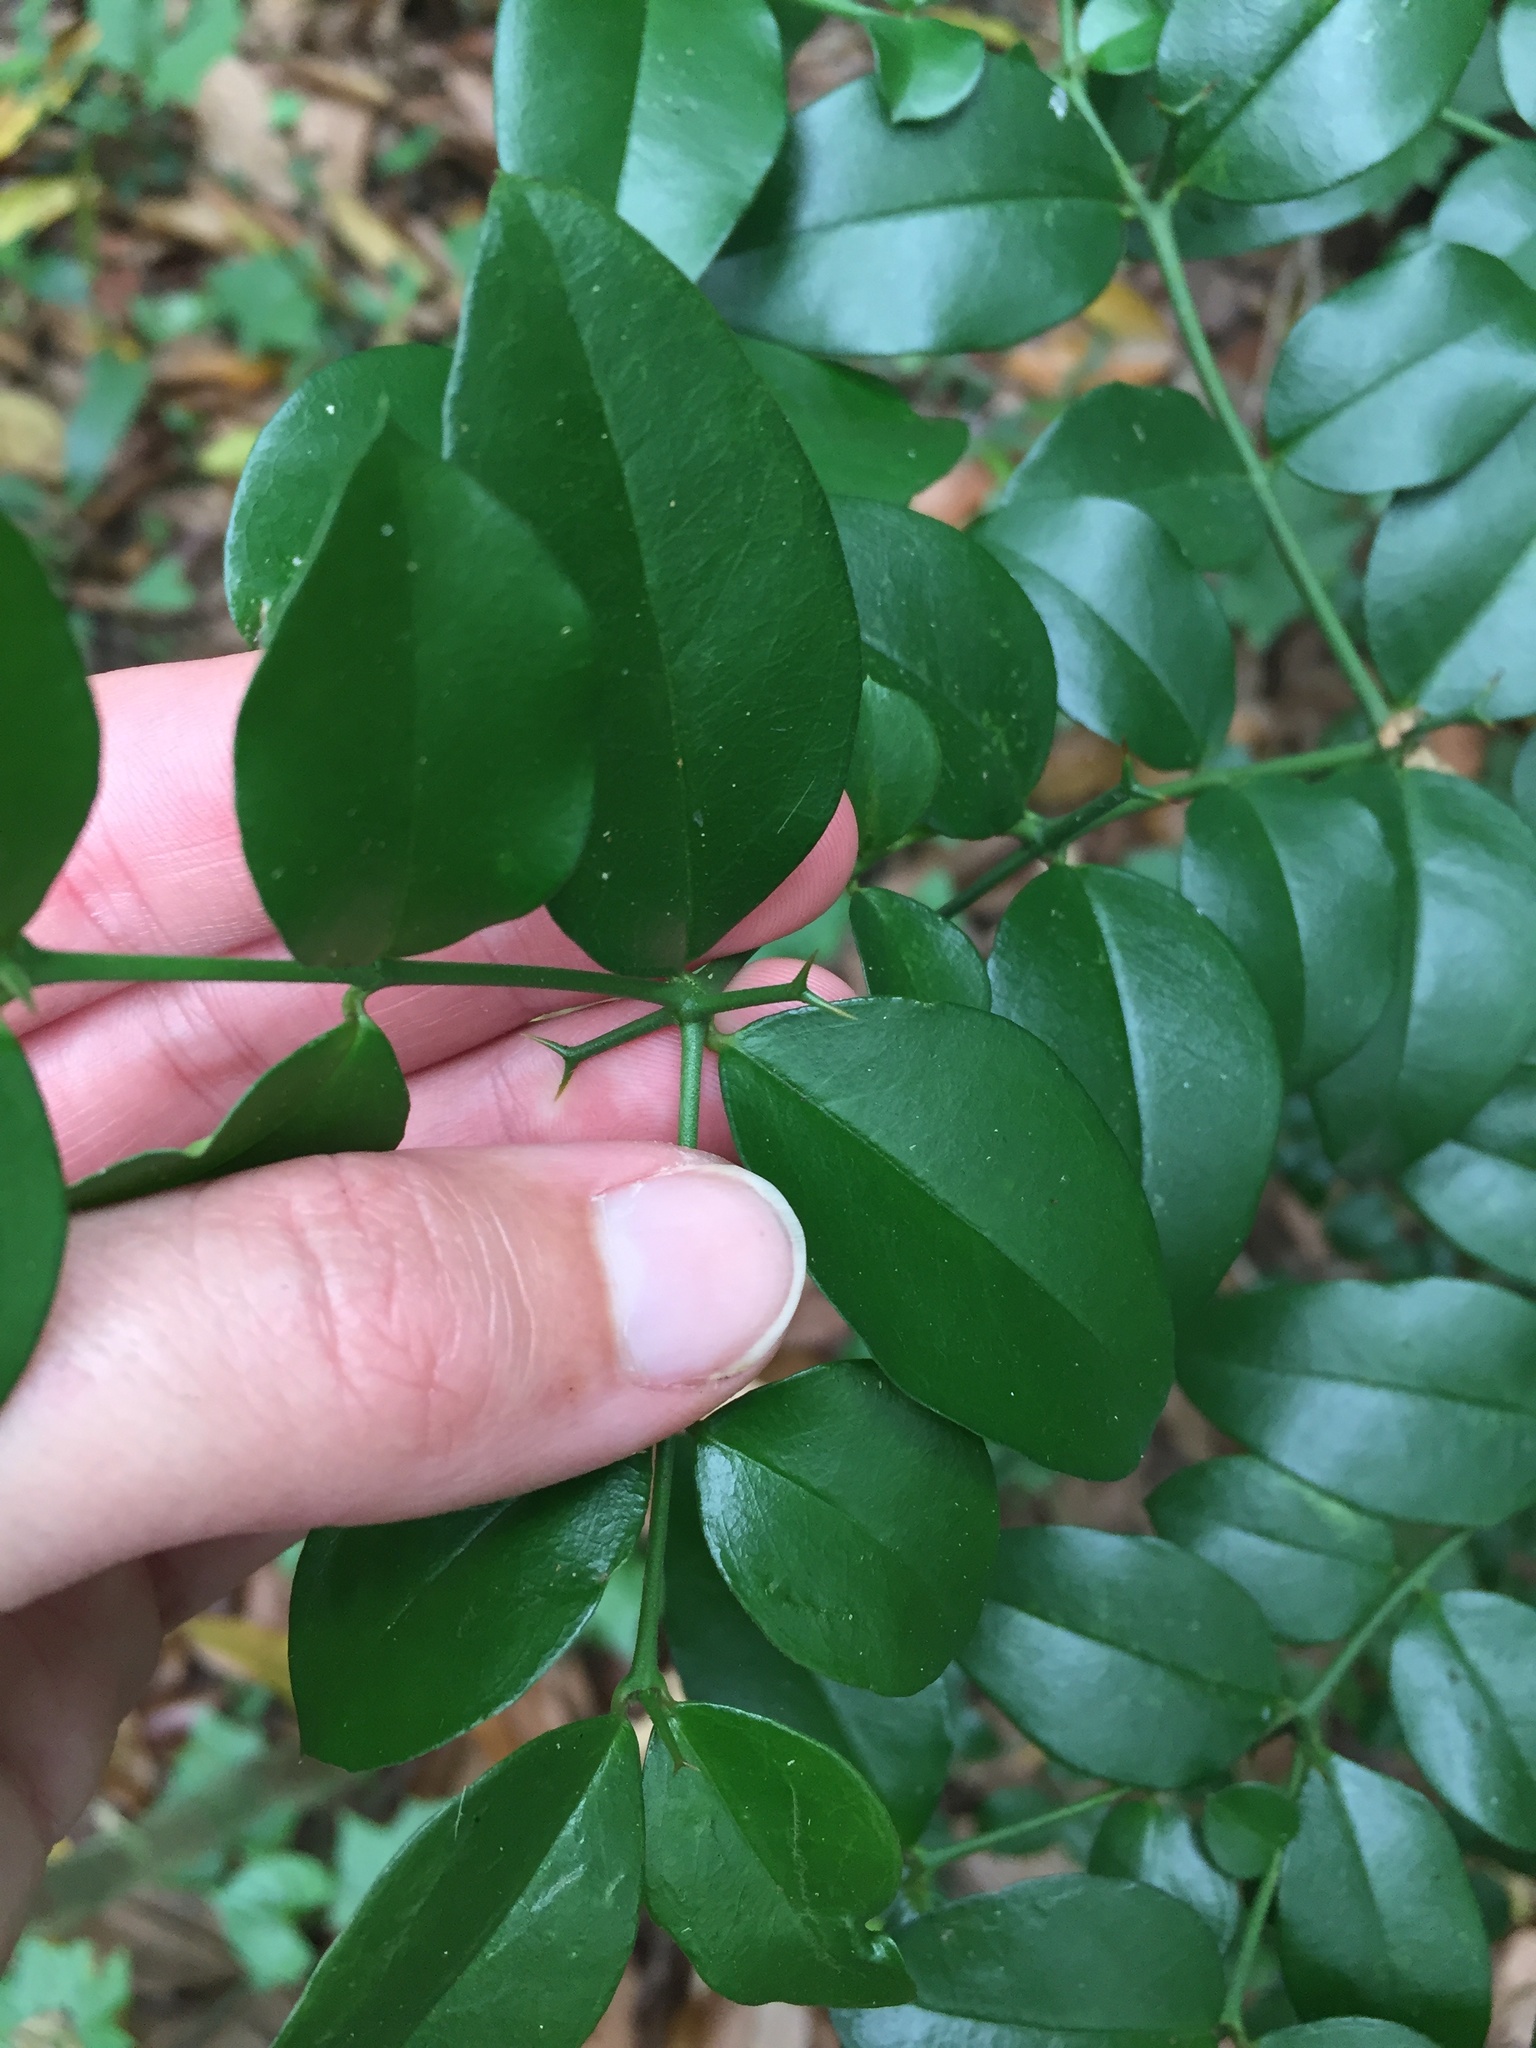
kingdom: Plantae
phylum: Tracheophyta
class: Magnoliopsida
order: Gentianales
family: Apocynaceae
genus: Carissa
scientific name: Carissa bispinosa
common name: Forest num-num
